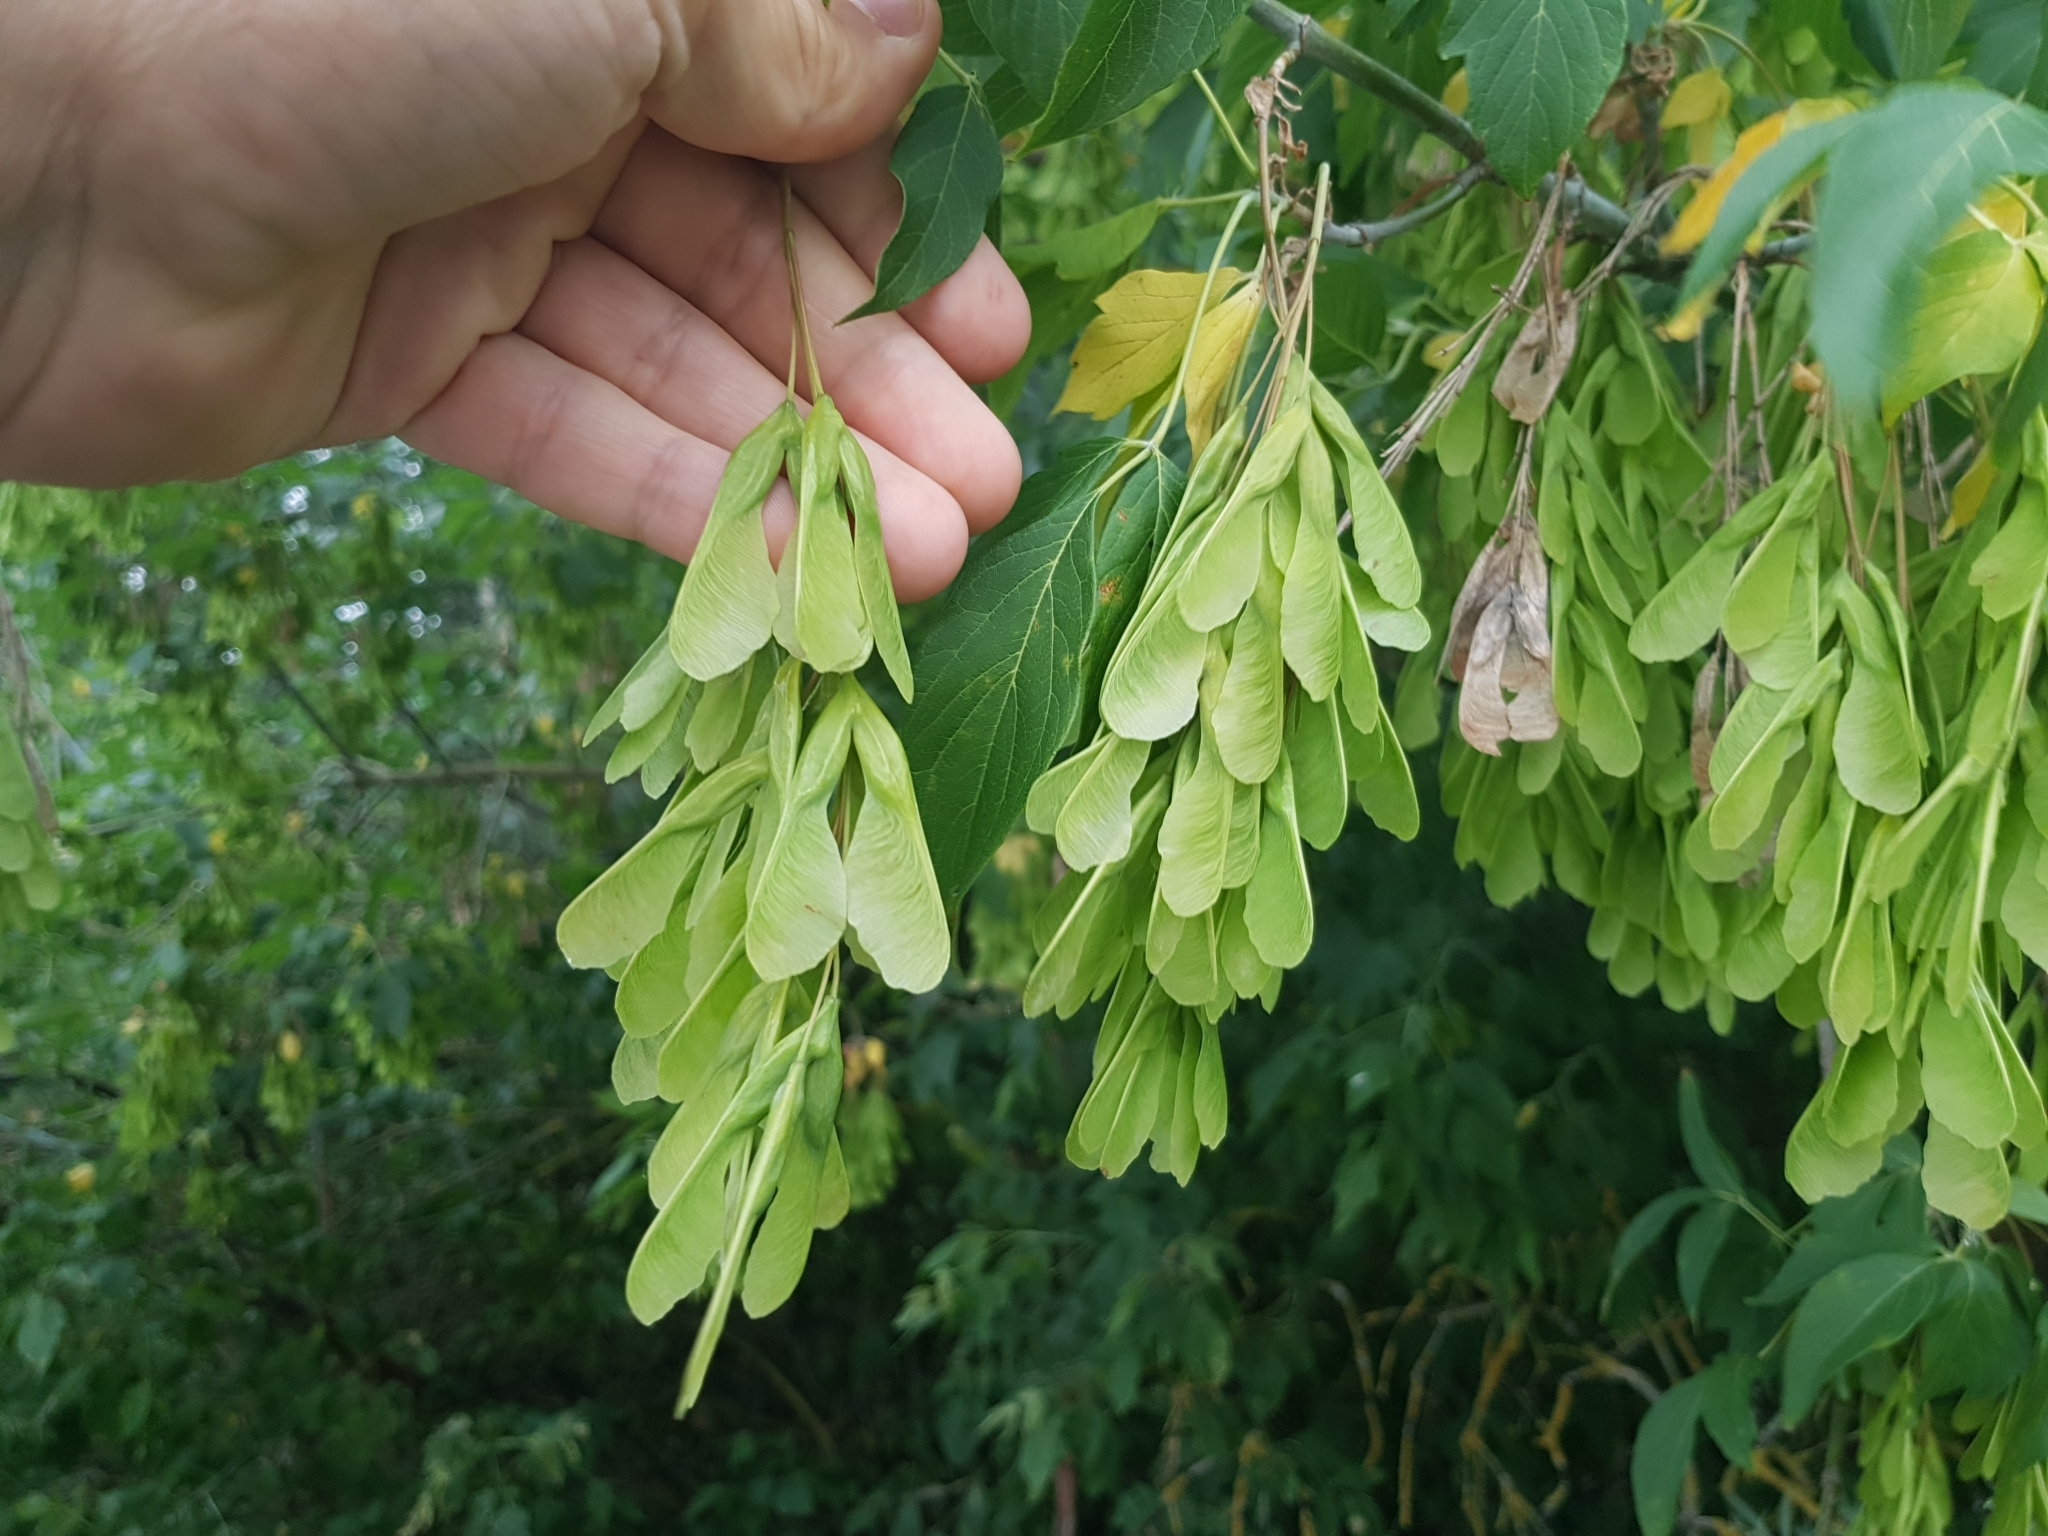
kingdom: Plantae
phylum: Tracheophyta
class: Magnoliopsida
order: Sapindales
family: Sapindaceae
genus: Acer
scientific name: Acer negundo
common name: Ashleaf maple
